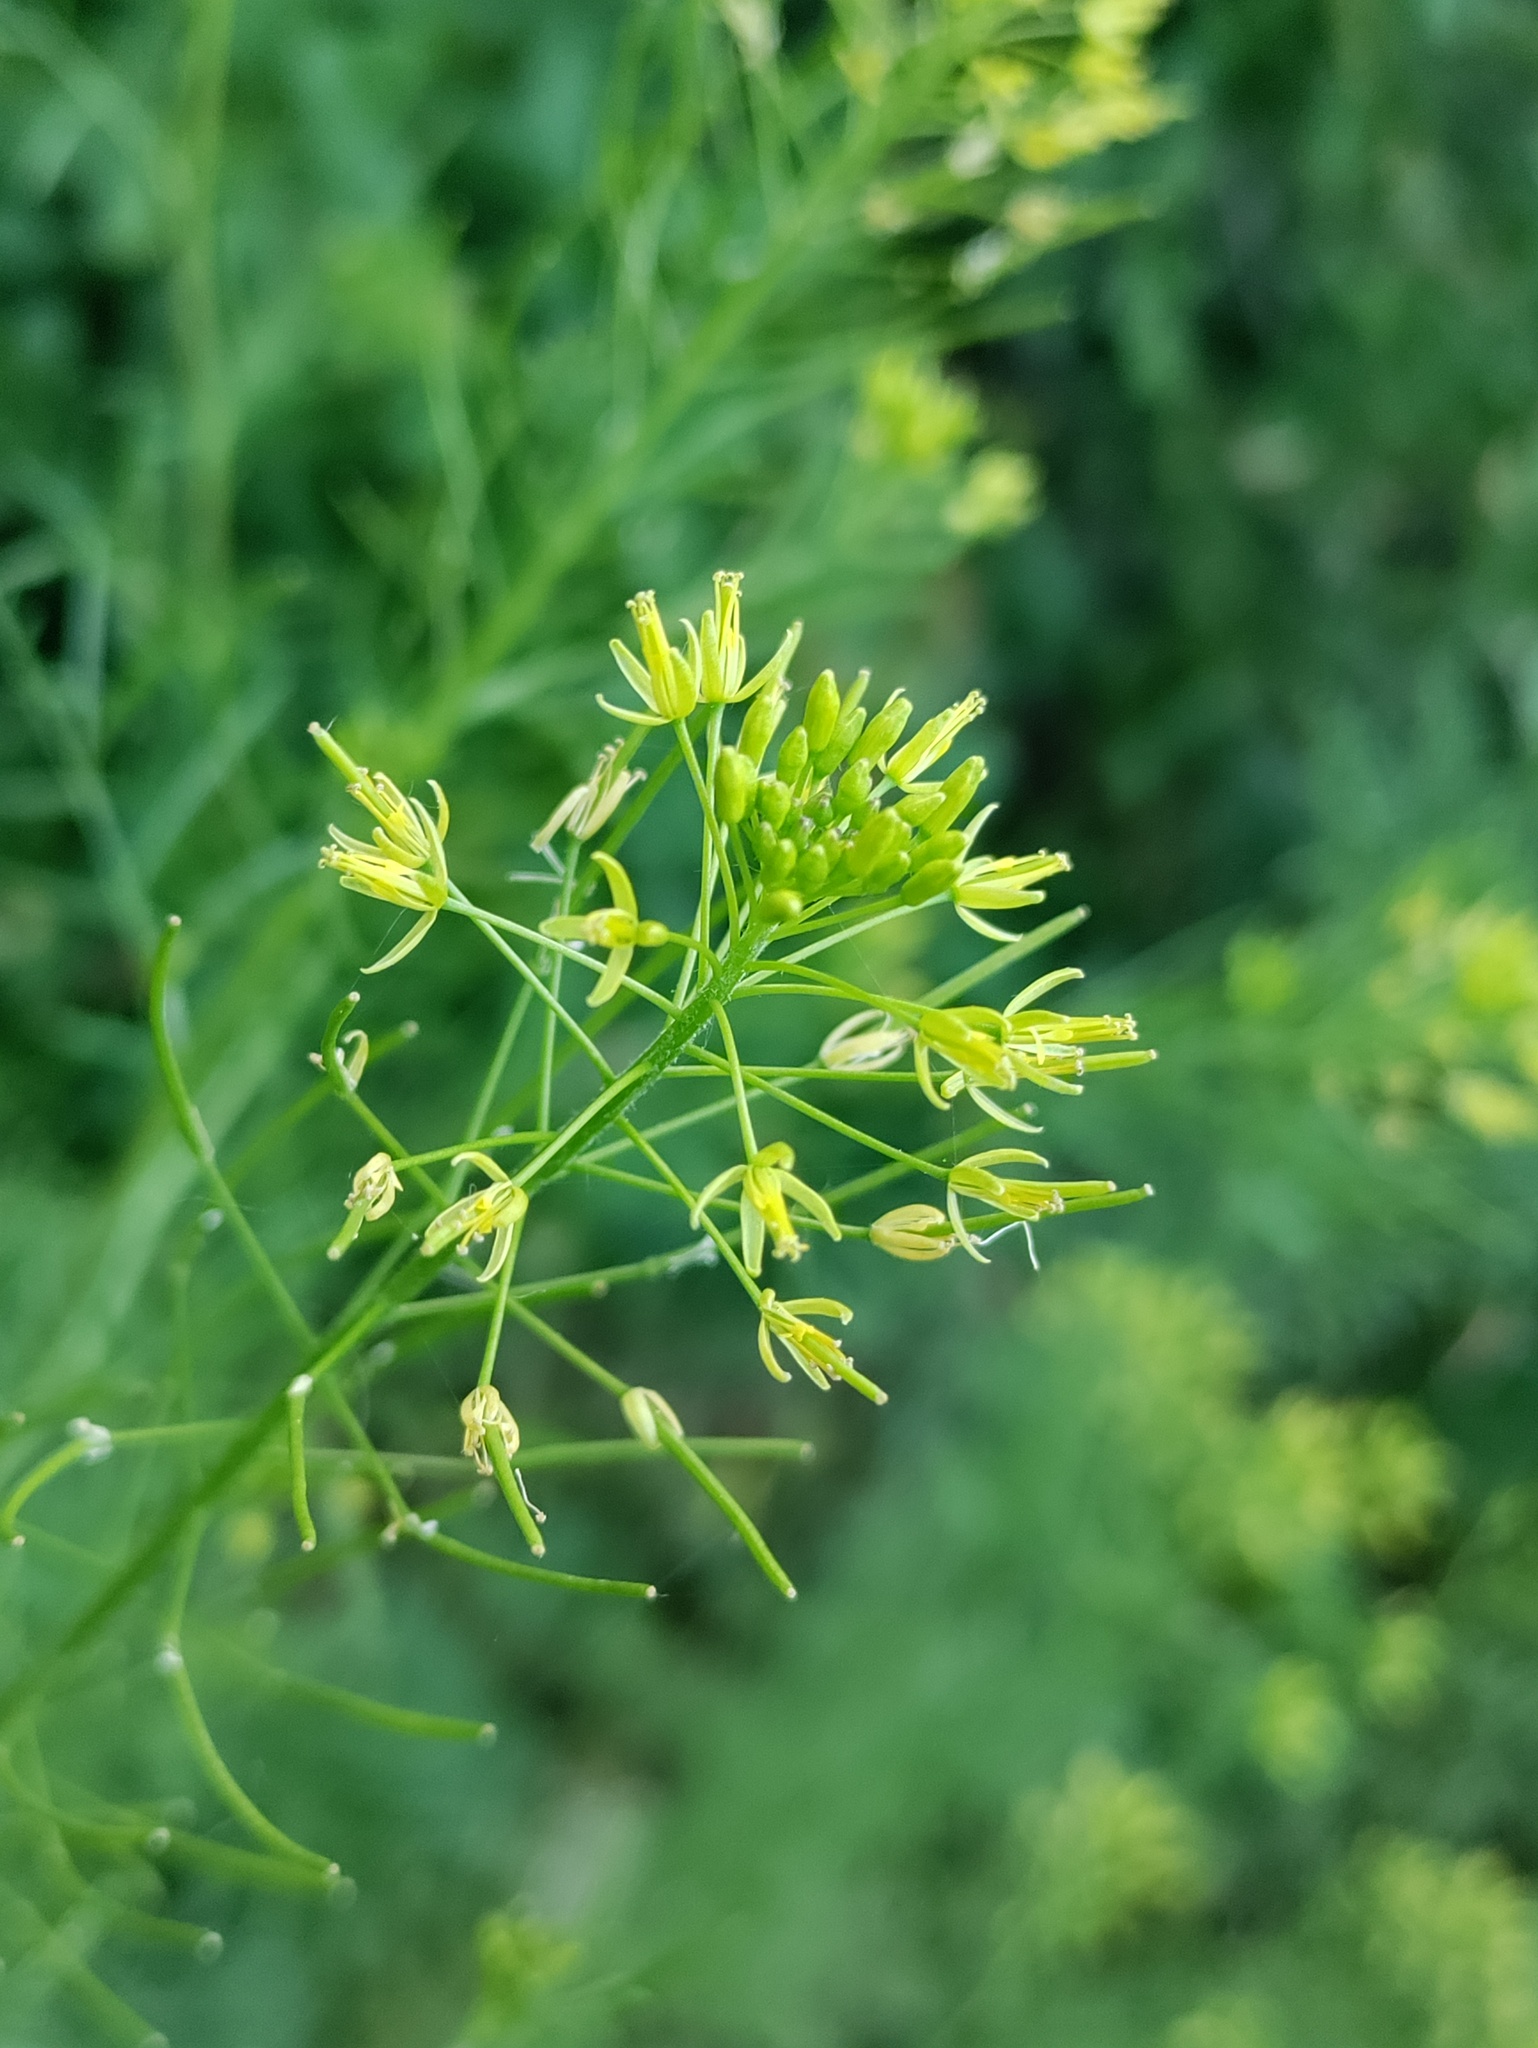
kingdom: Plantae
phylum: Tracheophyta
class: Magnoliopsida
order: Brassicales
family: Brassicaceae
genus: Descurainia
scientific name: Descurainia sophia
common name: Flixweed
